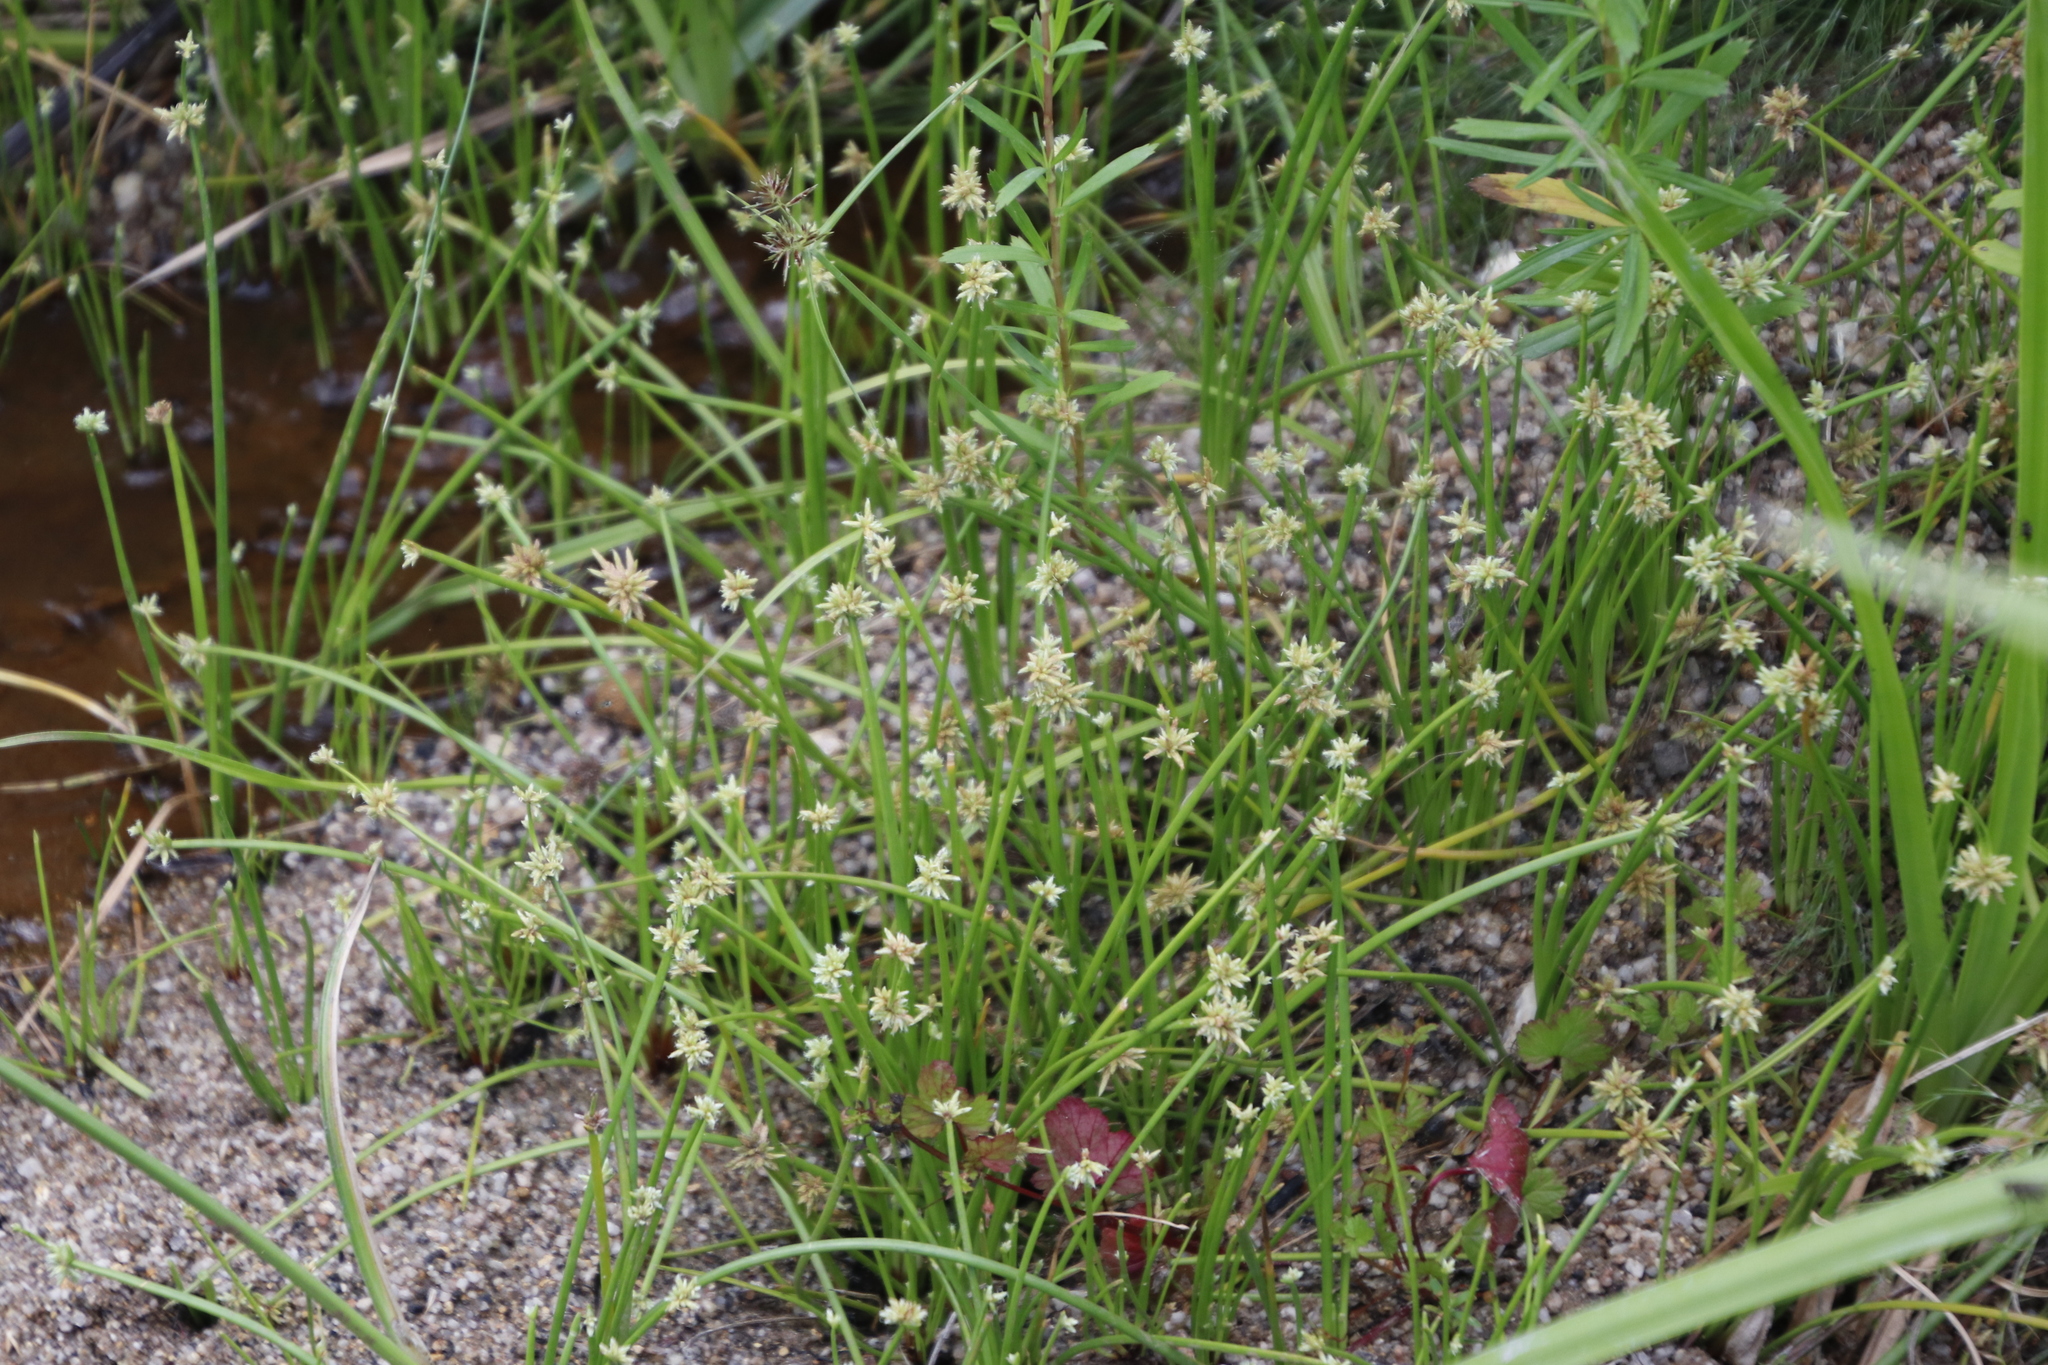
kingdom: Plantae
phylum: Tracheophyta
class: Liliopsida
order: Poales
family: Cyperaceae
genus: Isolepis
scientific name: Isolepis prolifera
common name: Proliferating bulrush
